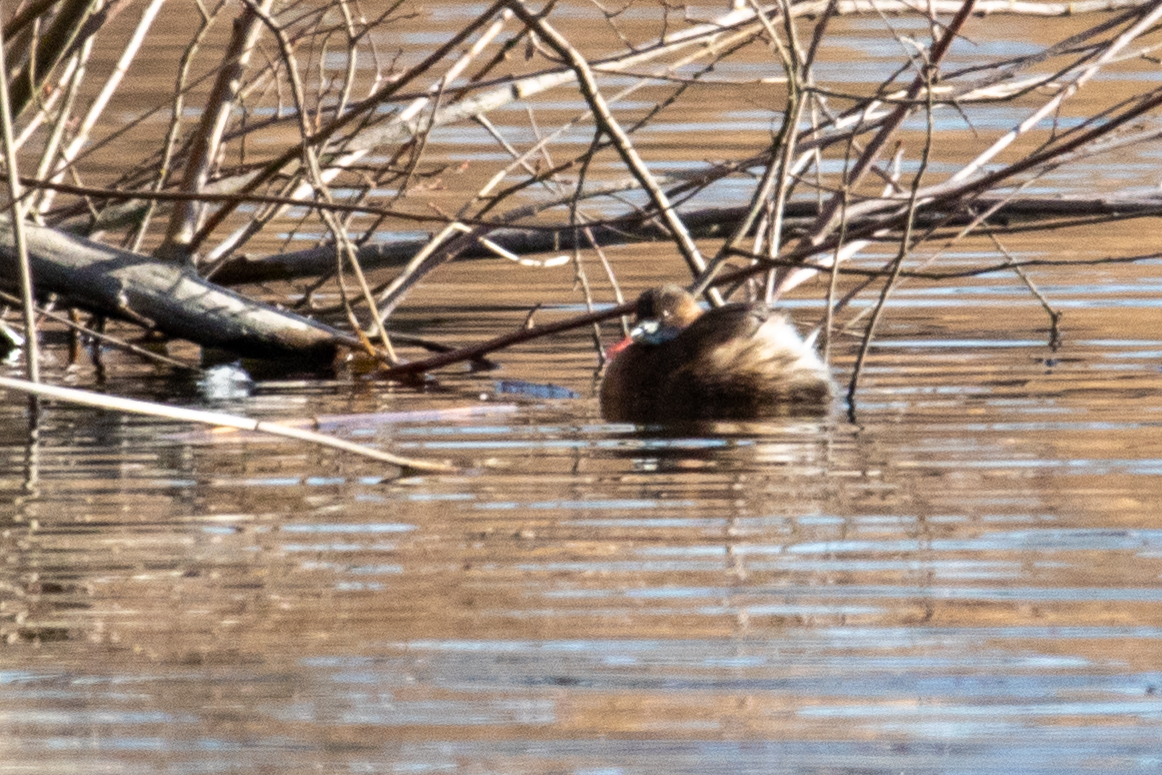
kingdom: Animalia
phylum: Chordata
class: Aves
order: Podicipediformes
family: Podicipedidae
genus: Tachybaptus
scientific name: Tachybaptus ruficollis
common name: Little grebe
